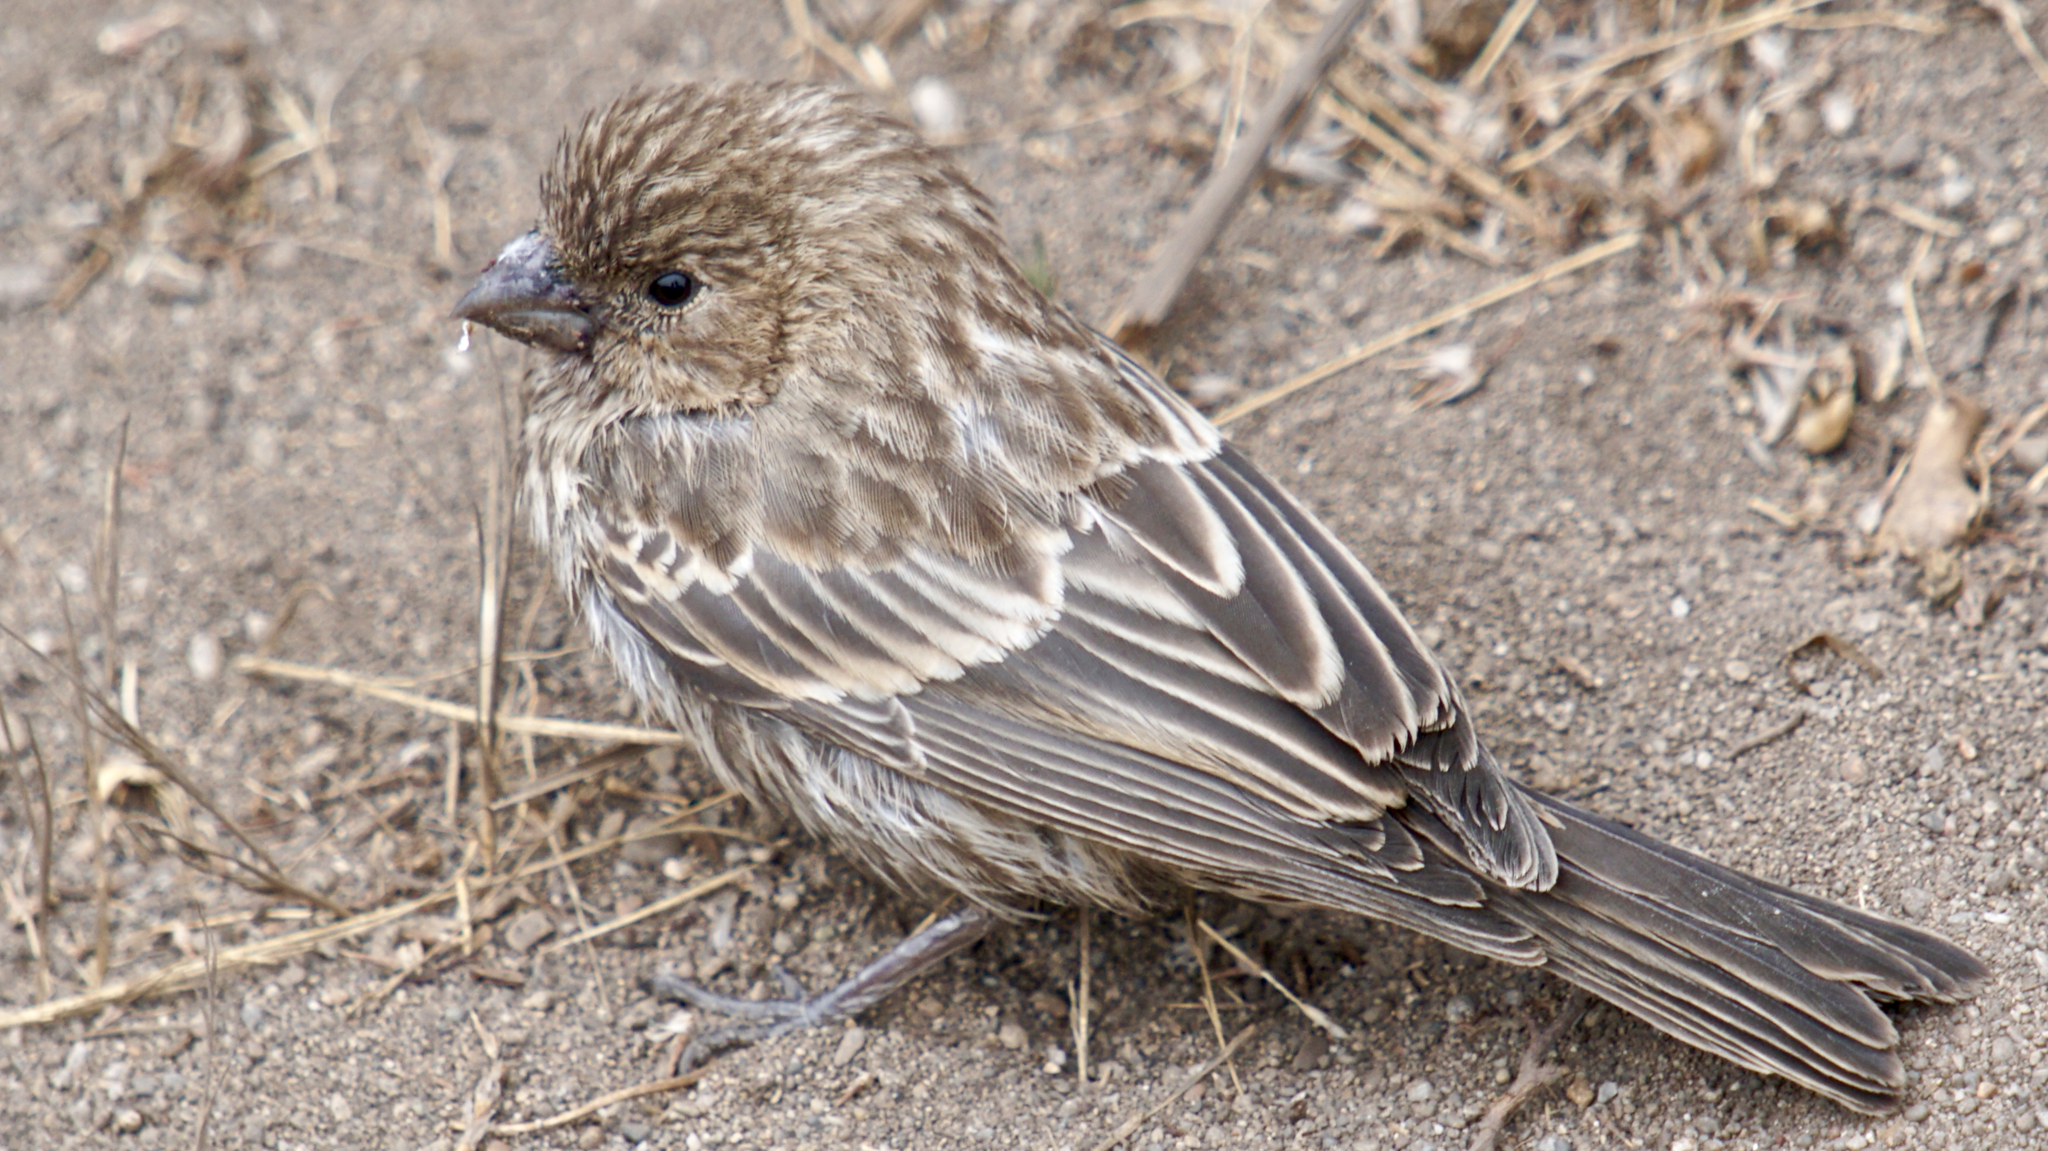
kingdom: Animalia
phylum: Chordata
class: Aves
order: Passeriformes
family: Fringillidae
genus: Haemorhous
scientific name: Haemorhous mexicanus
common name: House finch
